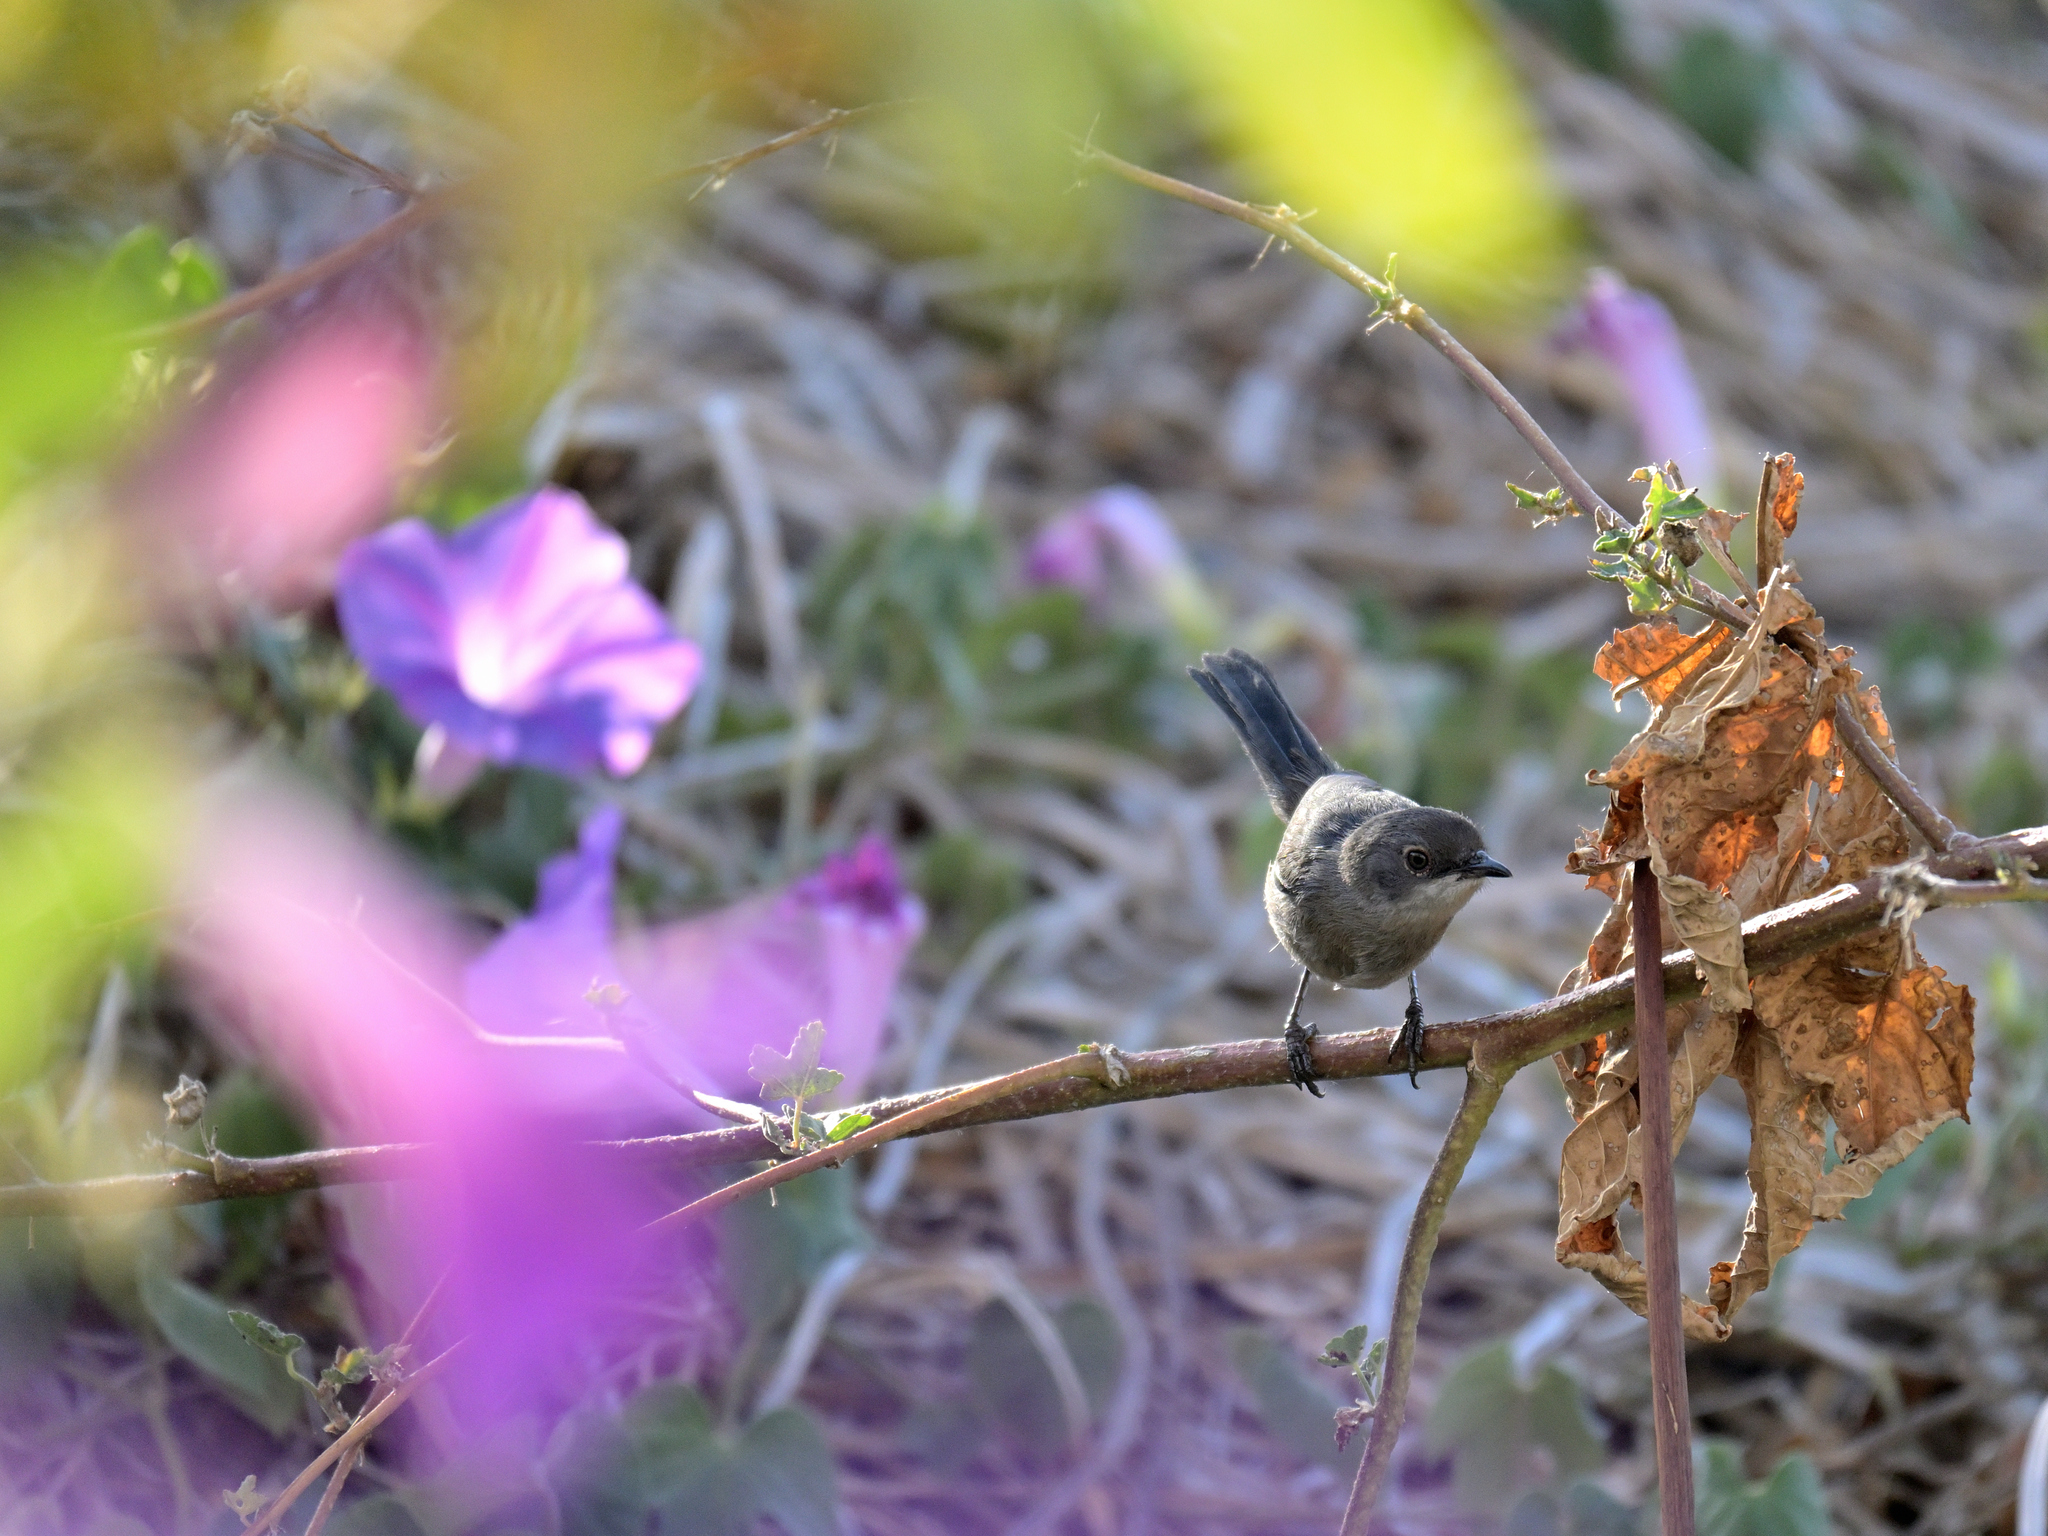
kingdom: Animalia
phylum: Chordata
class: Aves
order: Passeriformes
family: Sylviidae
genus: Curruca
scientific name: Curruca melanocephala
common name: Sardinian warbler
